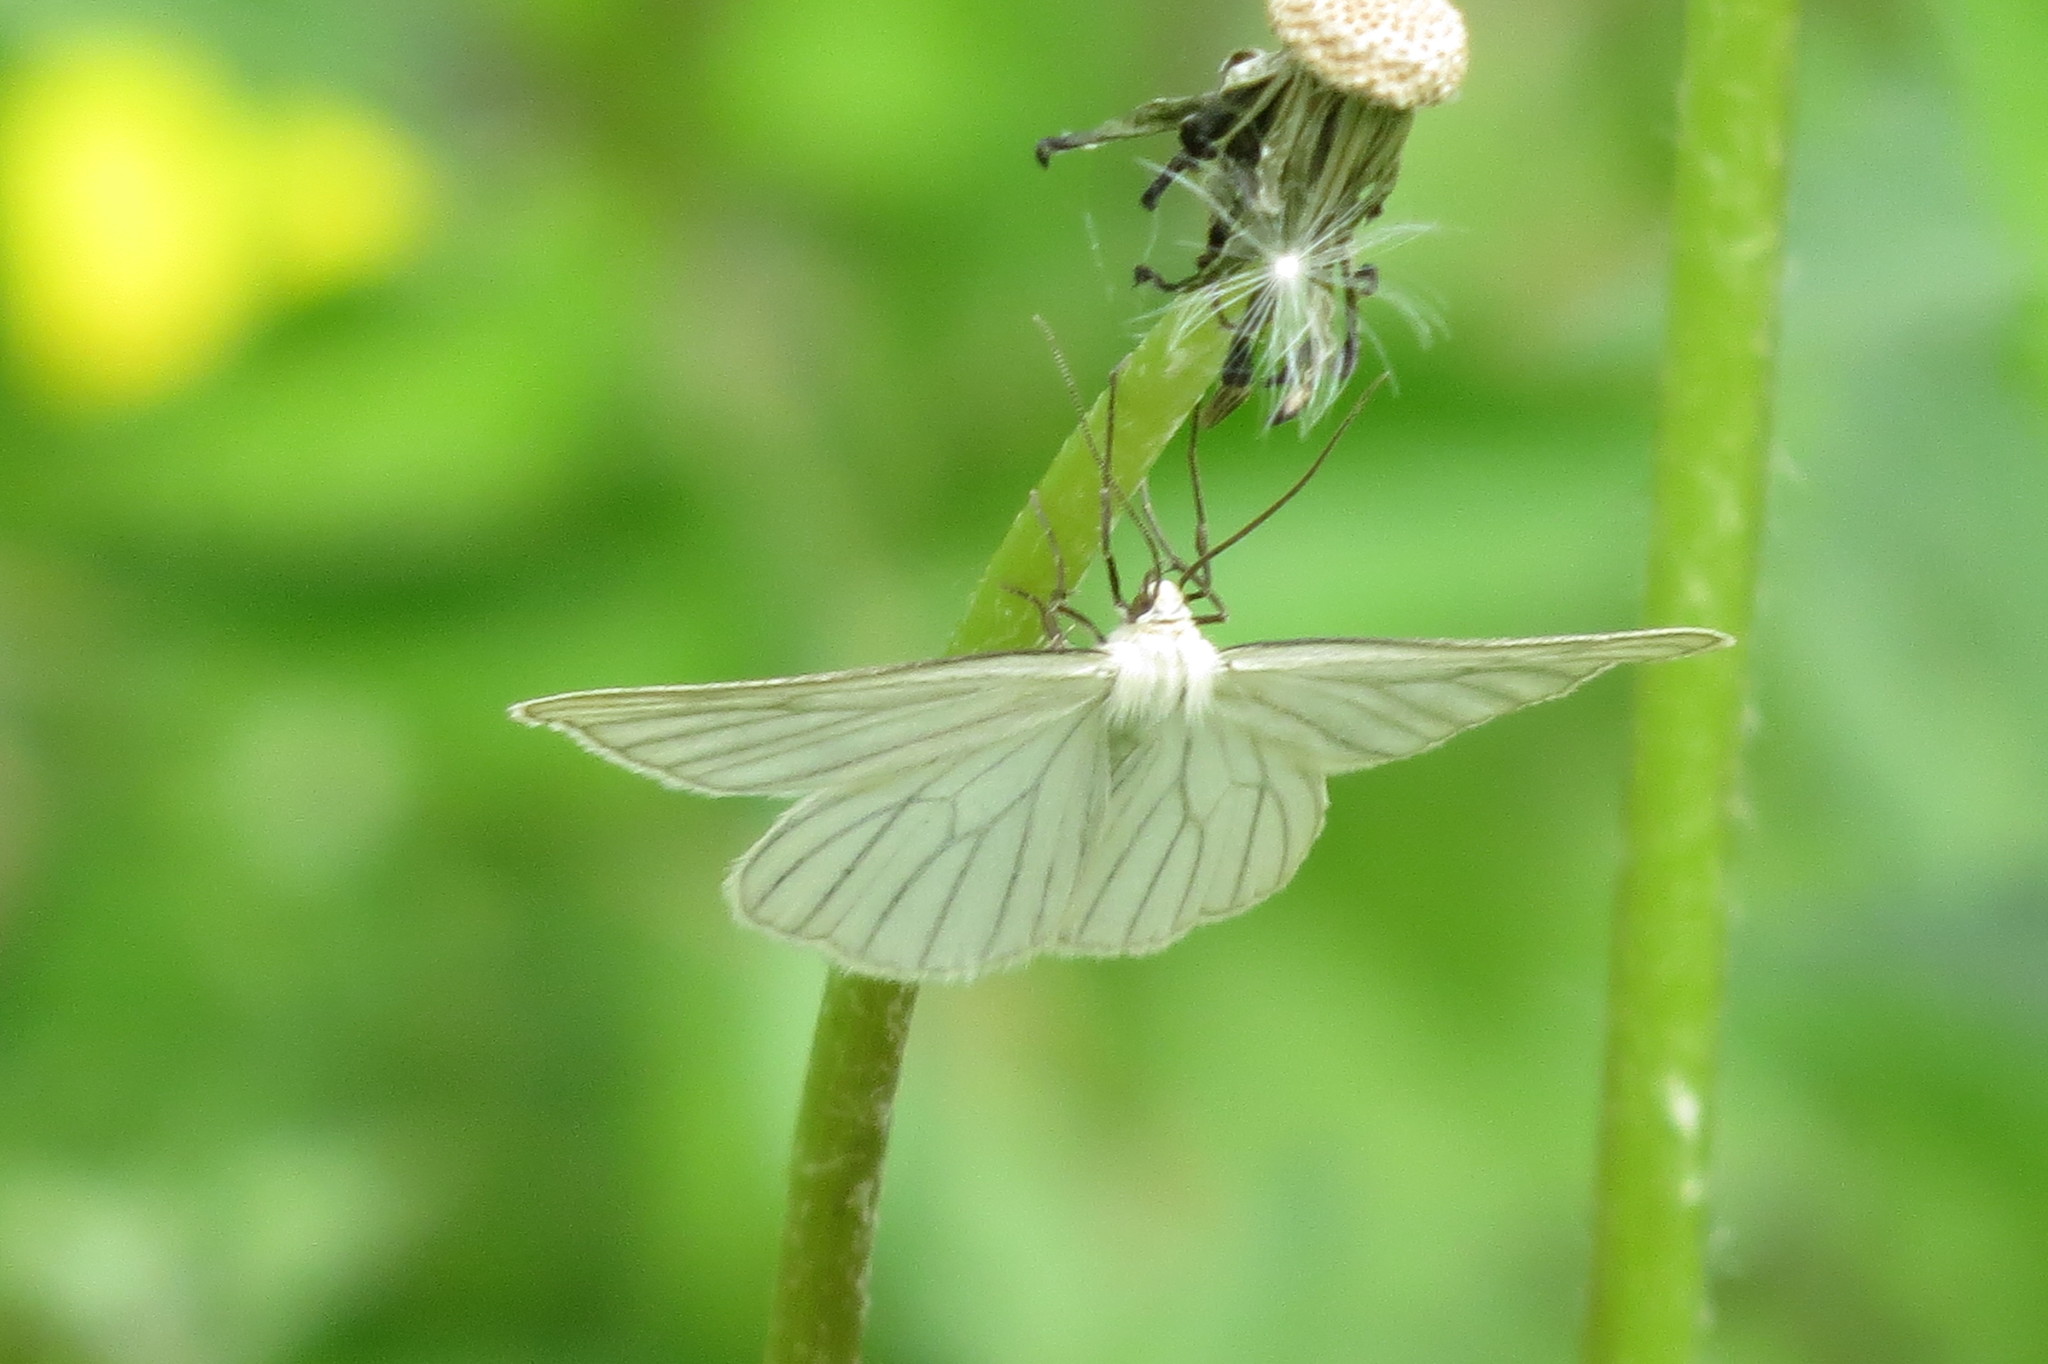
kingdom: Animalia
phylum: Arthropoda
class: Insecta
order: Lepidoptera
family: Geometridae
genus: Siona
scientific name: Siona lineata
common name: Black-veined moth
